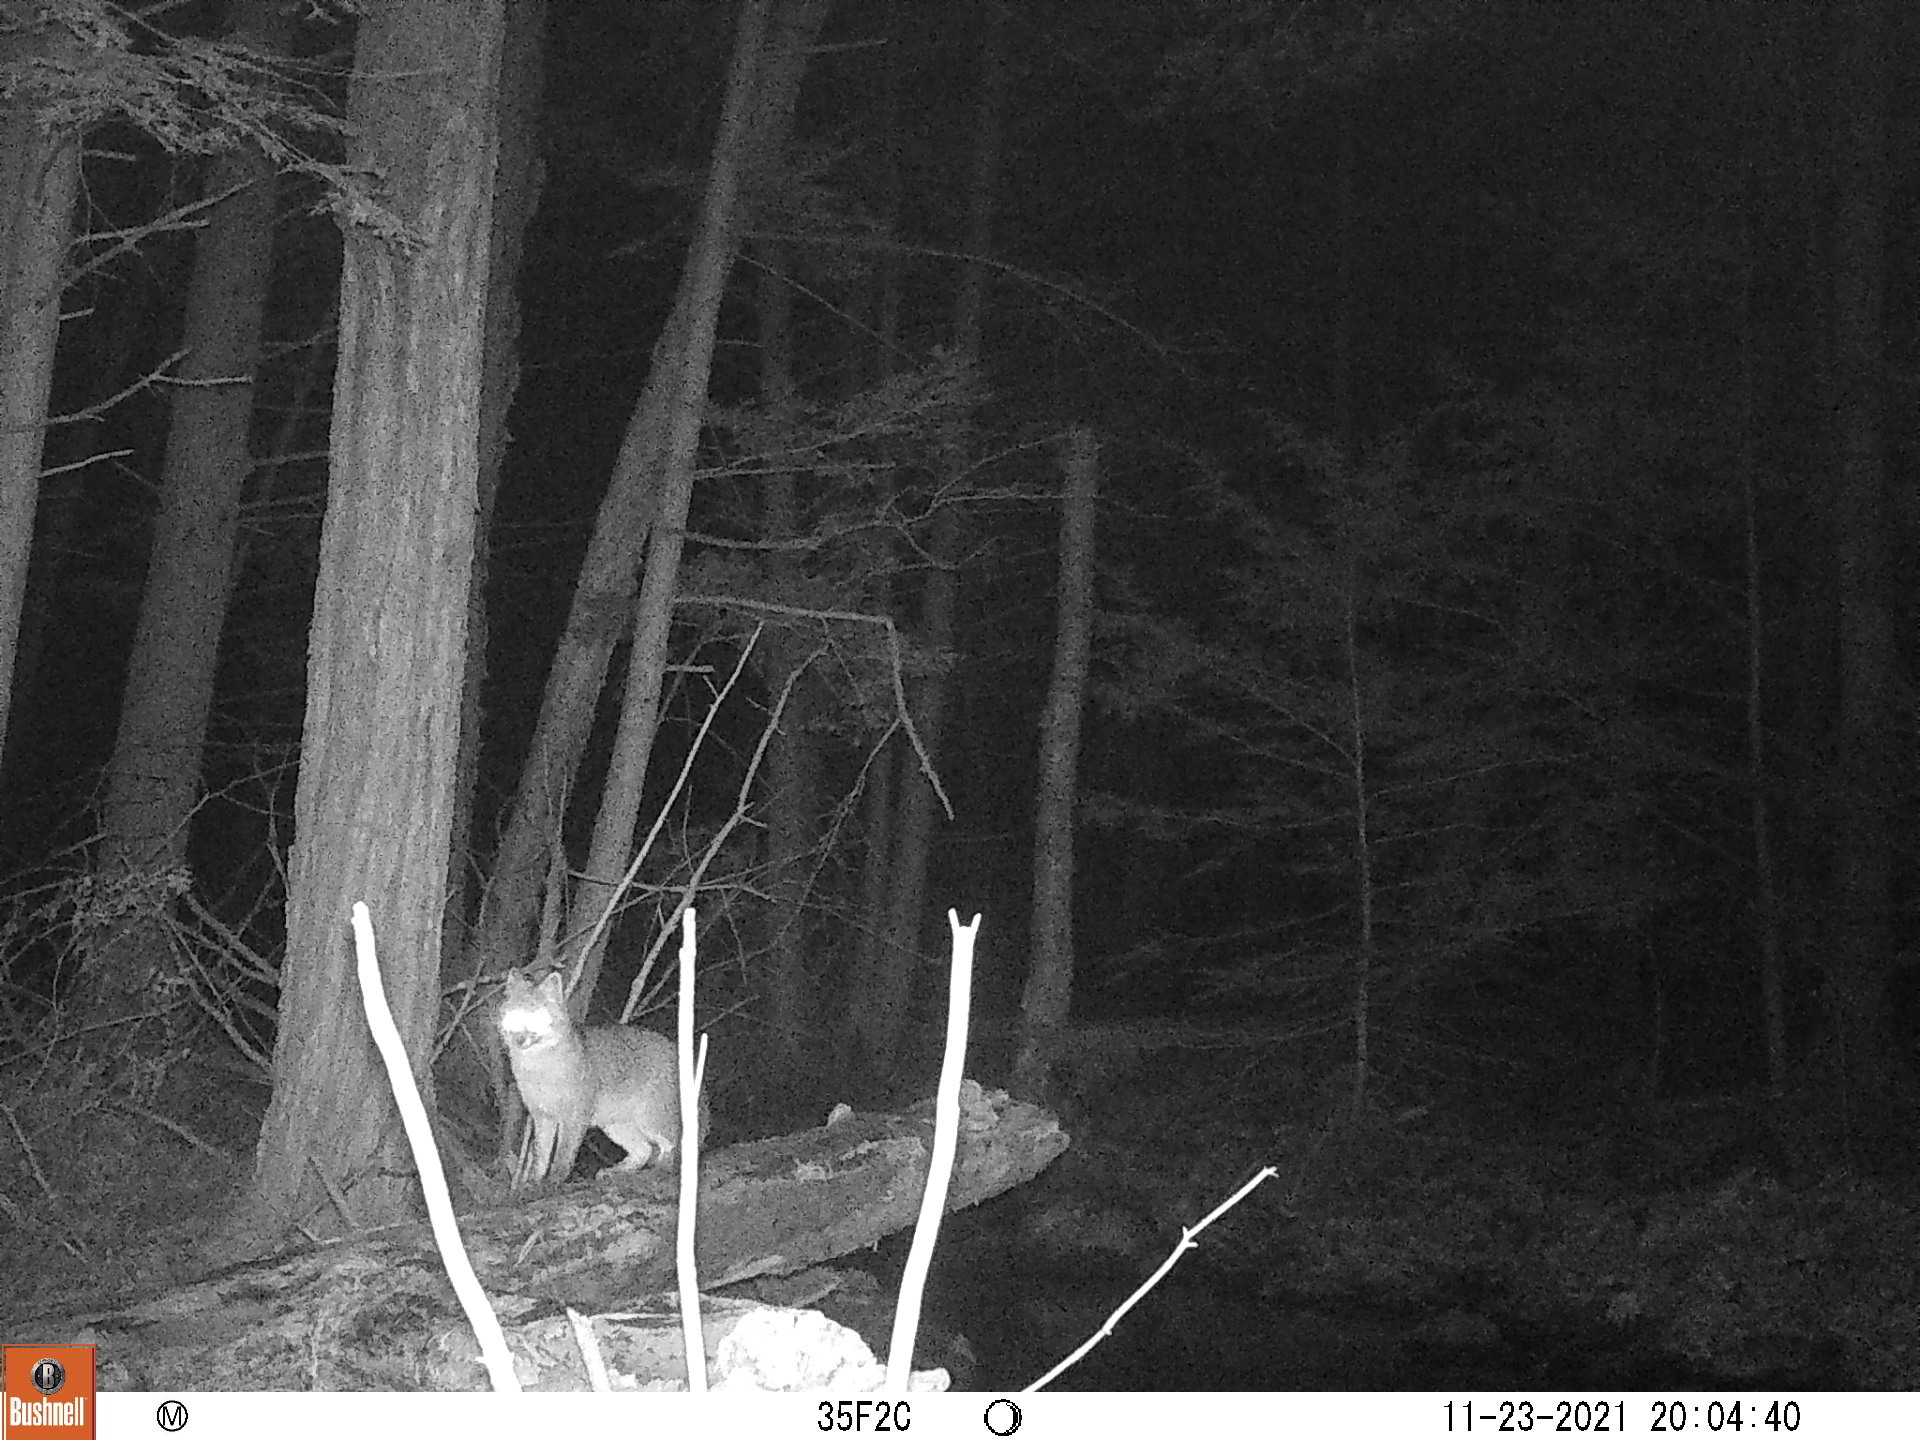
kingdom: Animalia
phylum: Chordata
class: Mammalia
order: Carnivora
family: Canidae
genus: Urocyon
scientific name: Urocyon cinereoargenteus
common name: Gray fox
